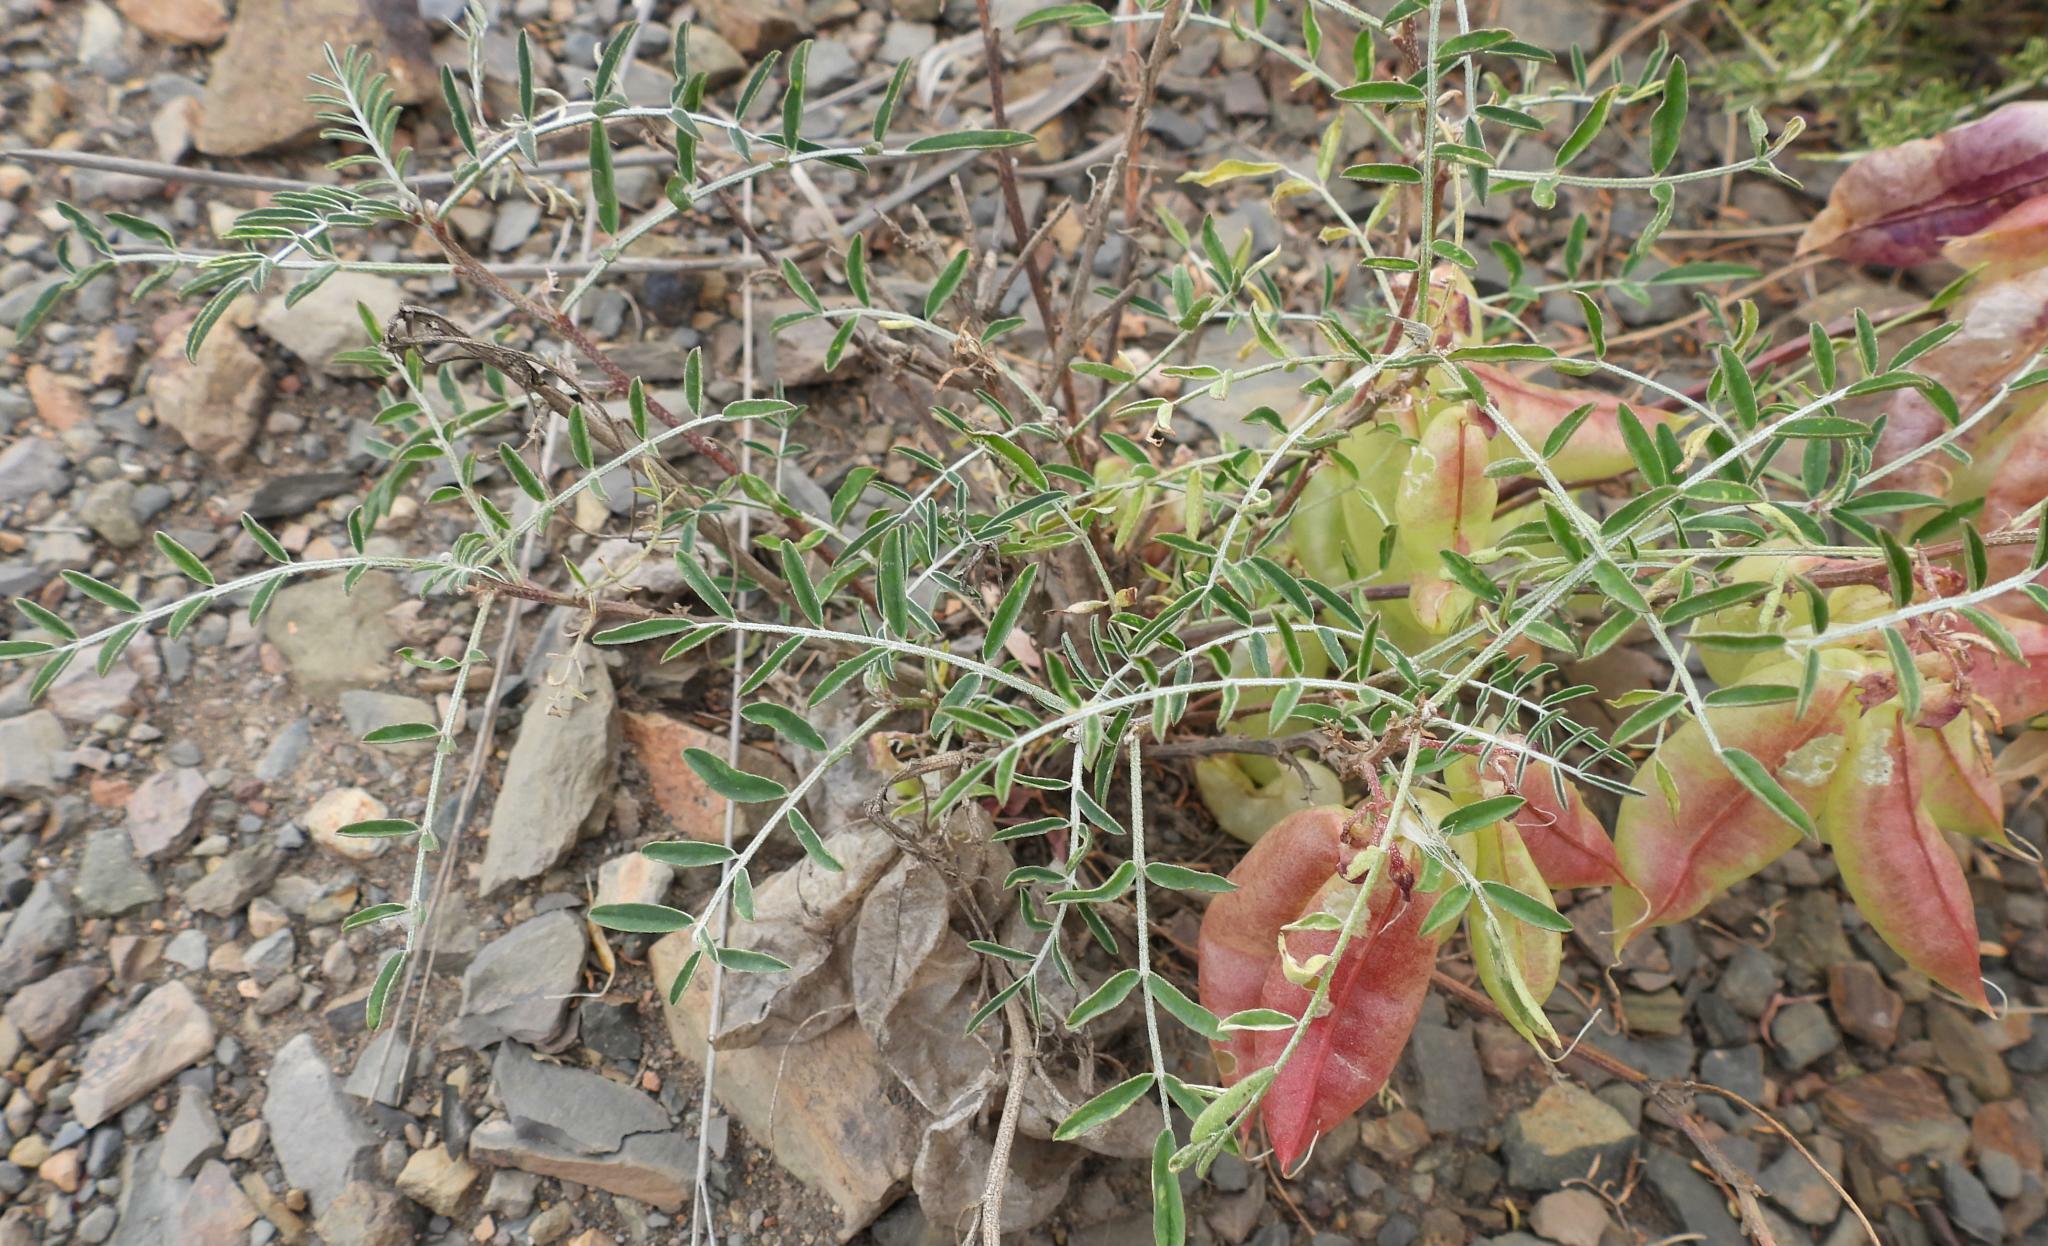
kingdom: Plantae
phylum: Tracheophyta
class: Magnoliopsida
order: Fabales
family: Fabaceae
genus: Lessertia
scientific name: Lessertia frutescens
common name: Balloon-pea
